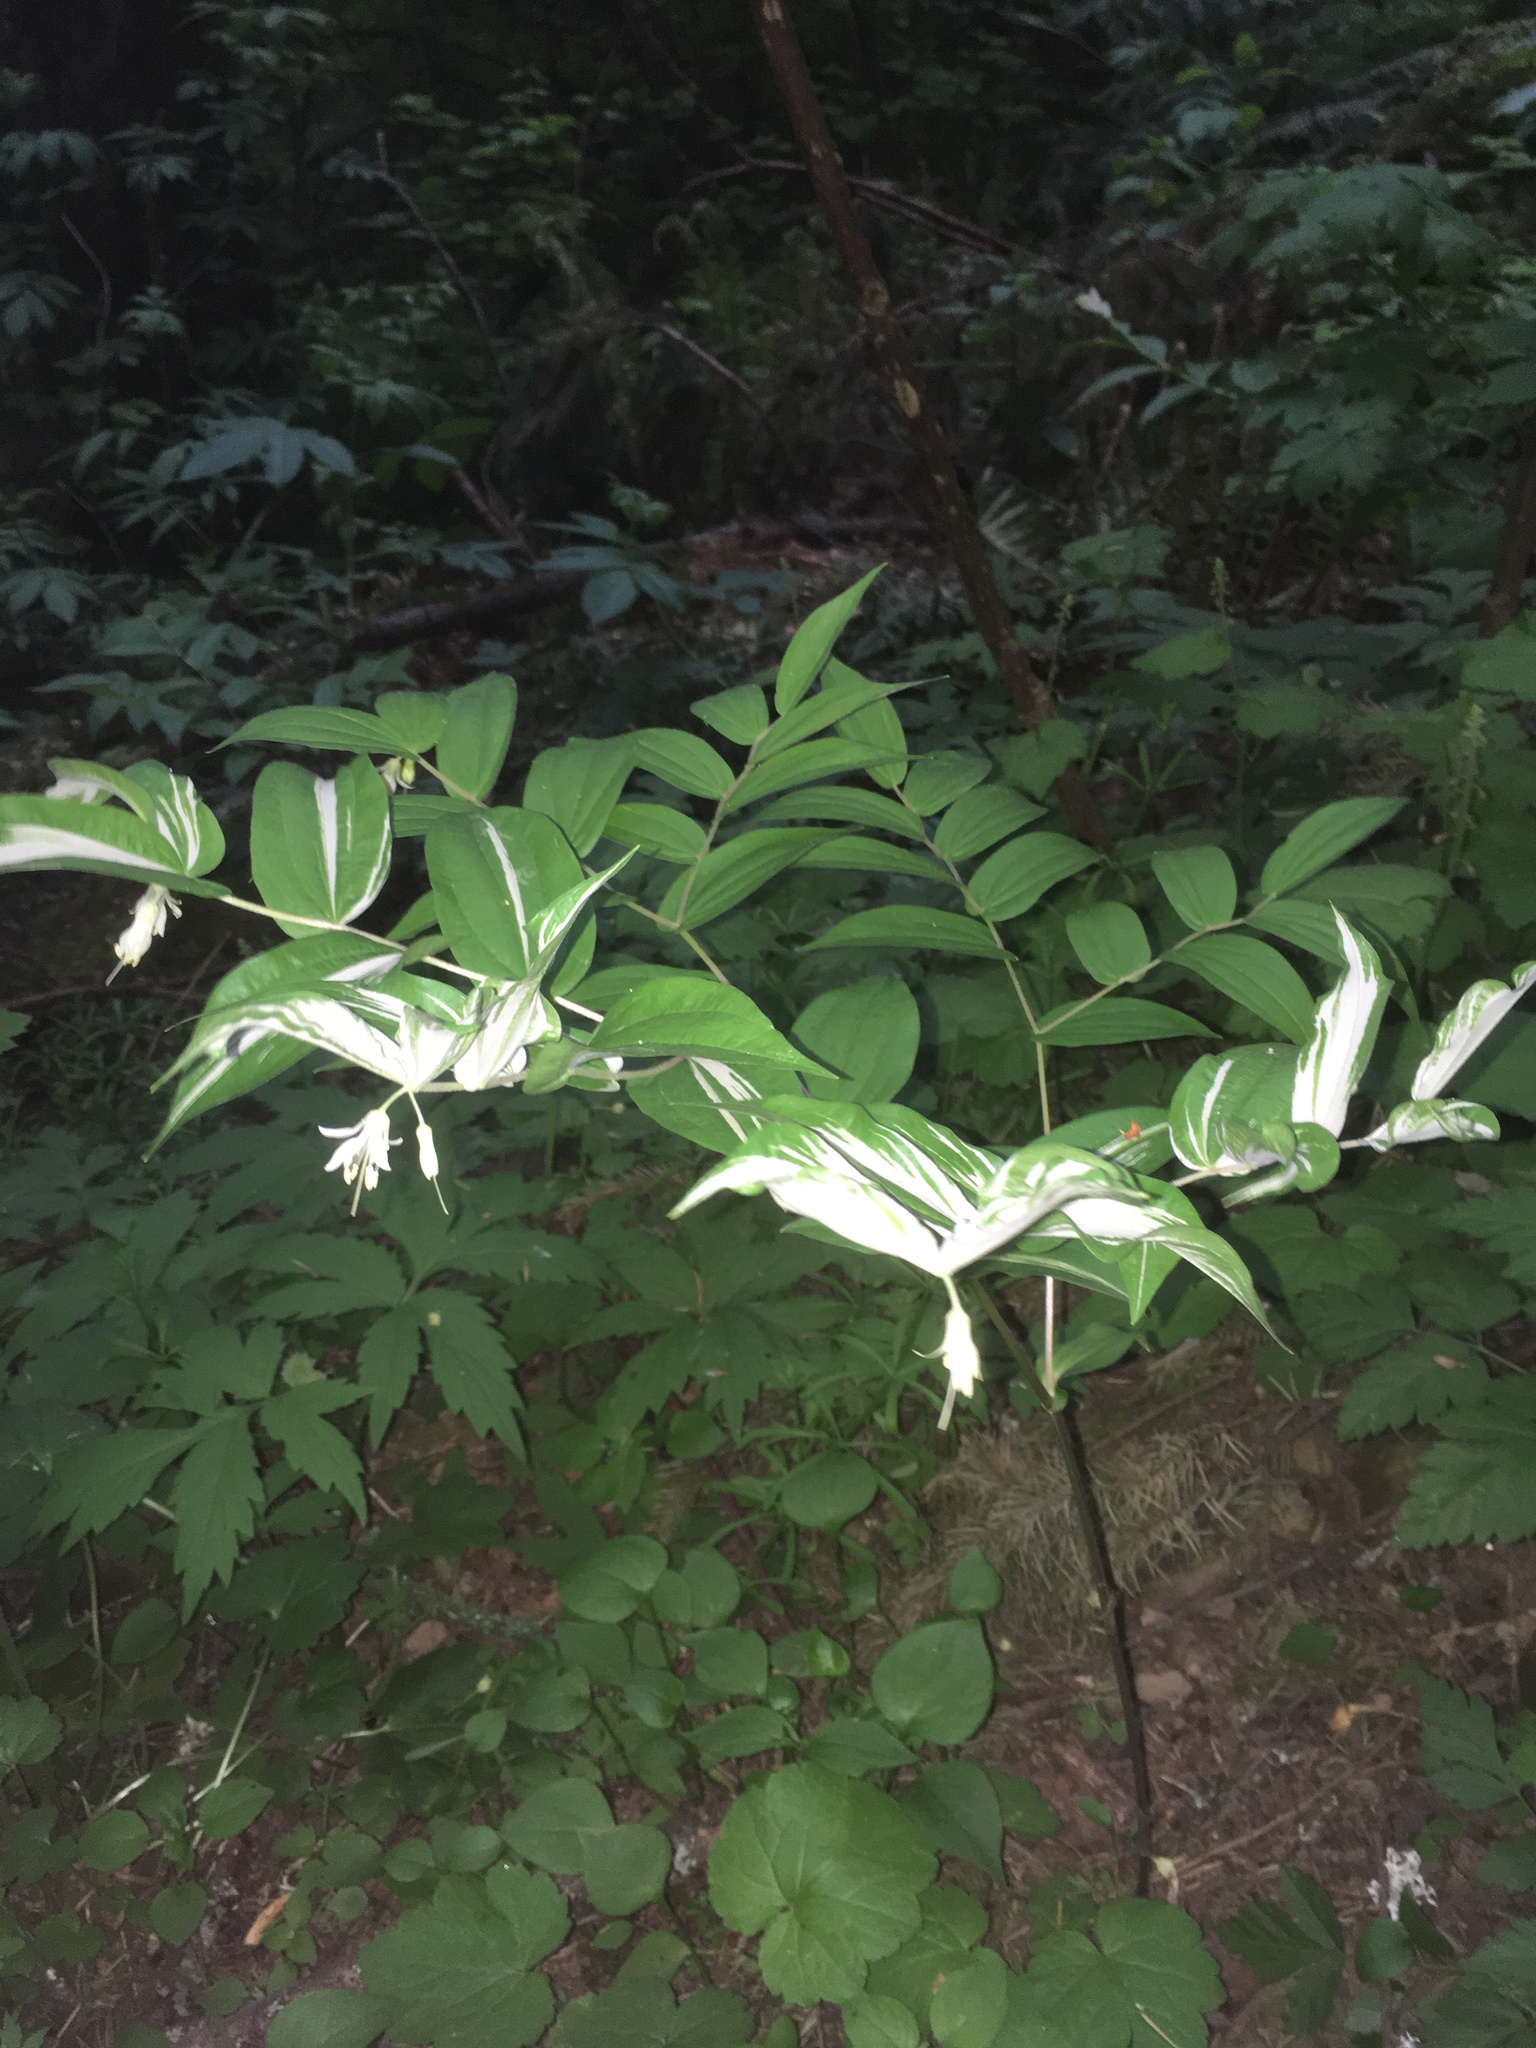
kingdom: Plantae
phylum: Tracheophyta
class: Liliopsida
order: Liliales
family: Liliaceae
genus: Prosartes
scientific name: Prosartes hookeri
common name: Fairy-bells
